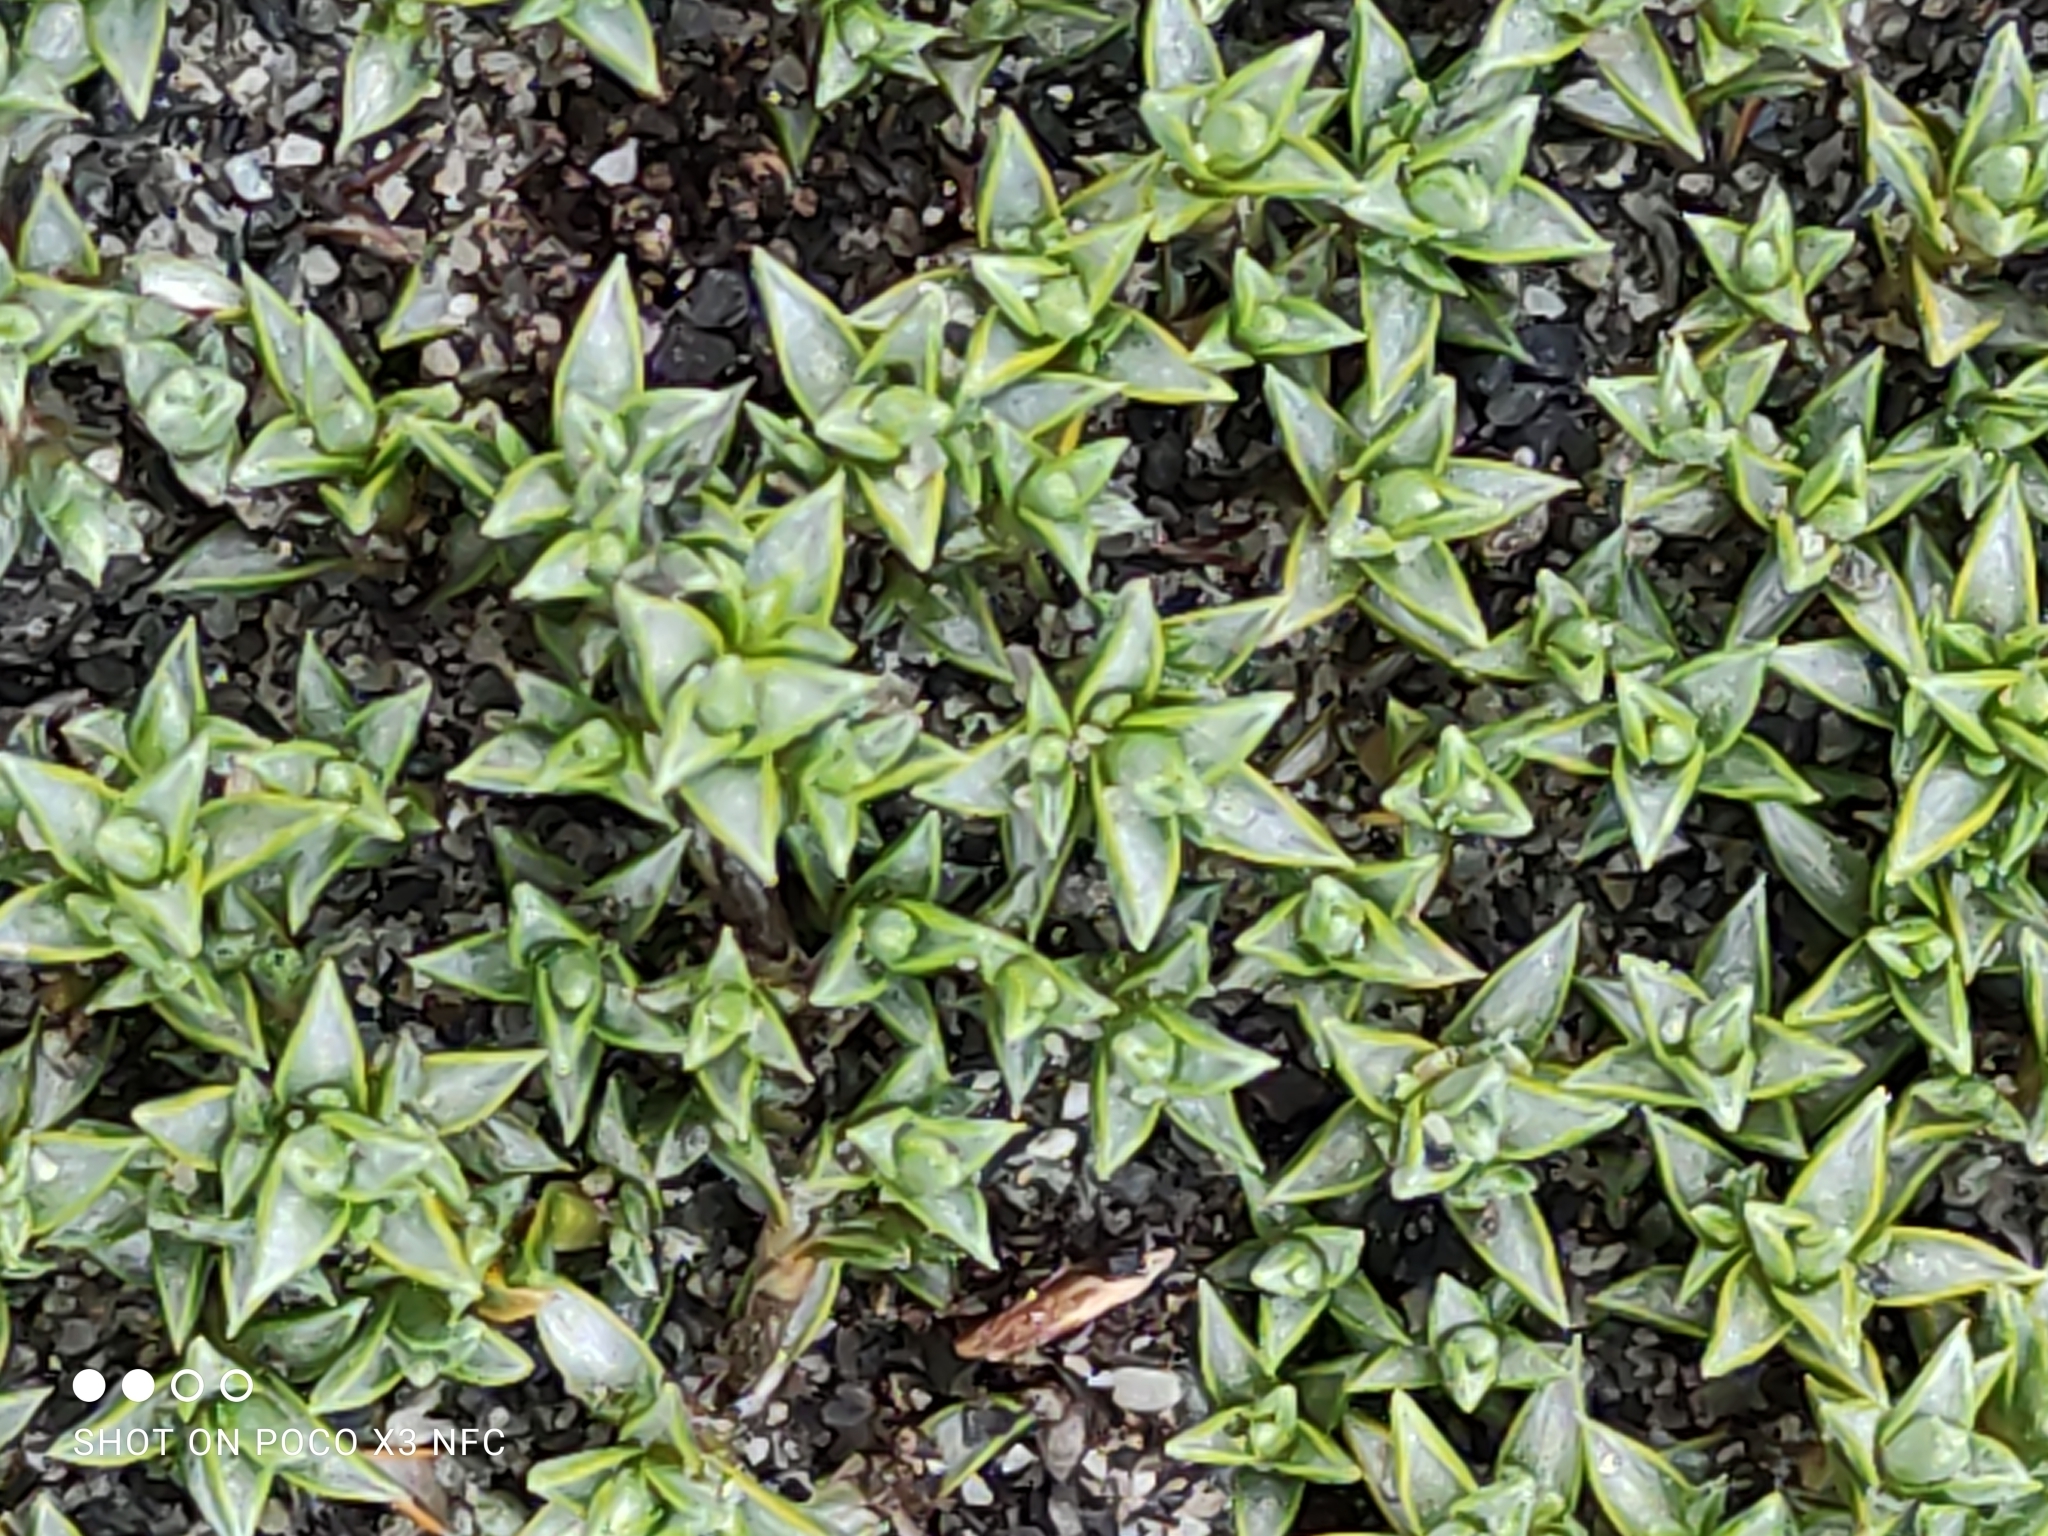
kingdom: Plantae
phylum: Tracheophyta
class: Magnoliopsida
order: Asterales
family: Asteraceae
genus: Raoulia
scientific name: Raoulia tenuicaulis
